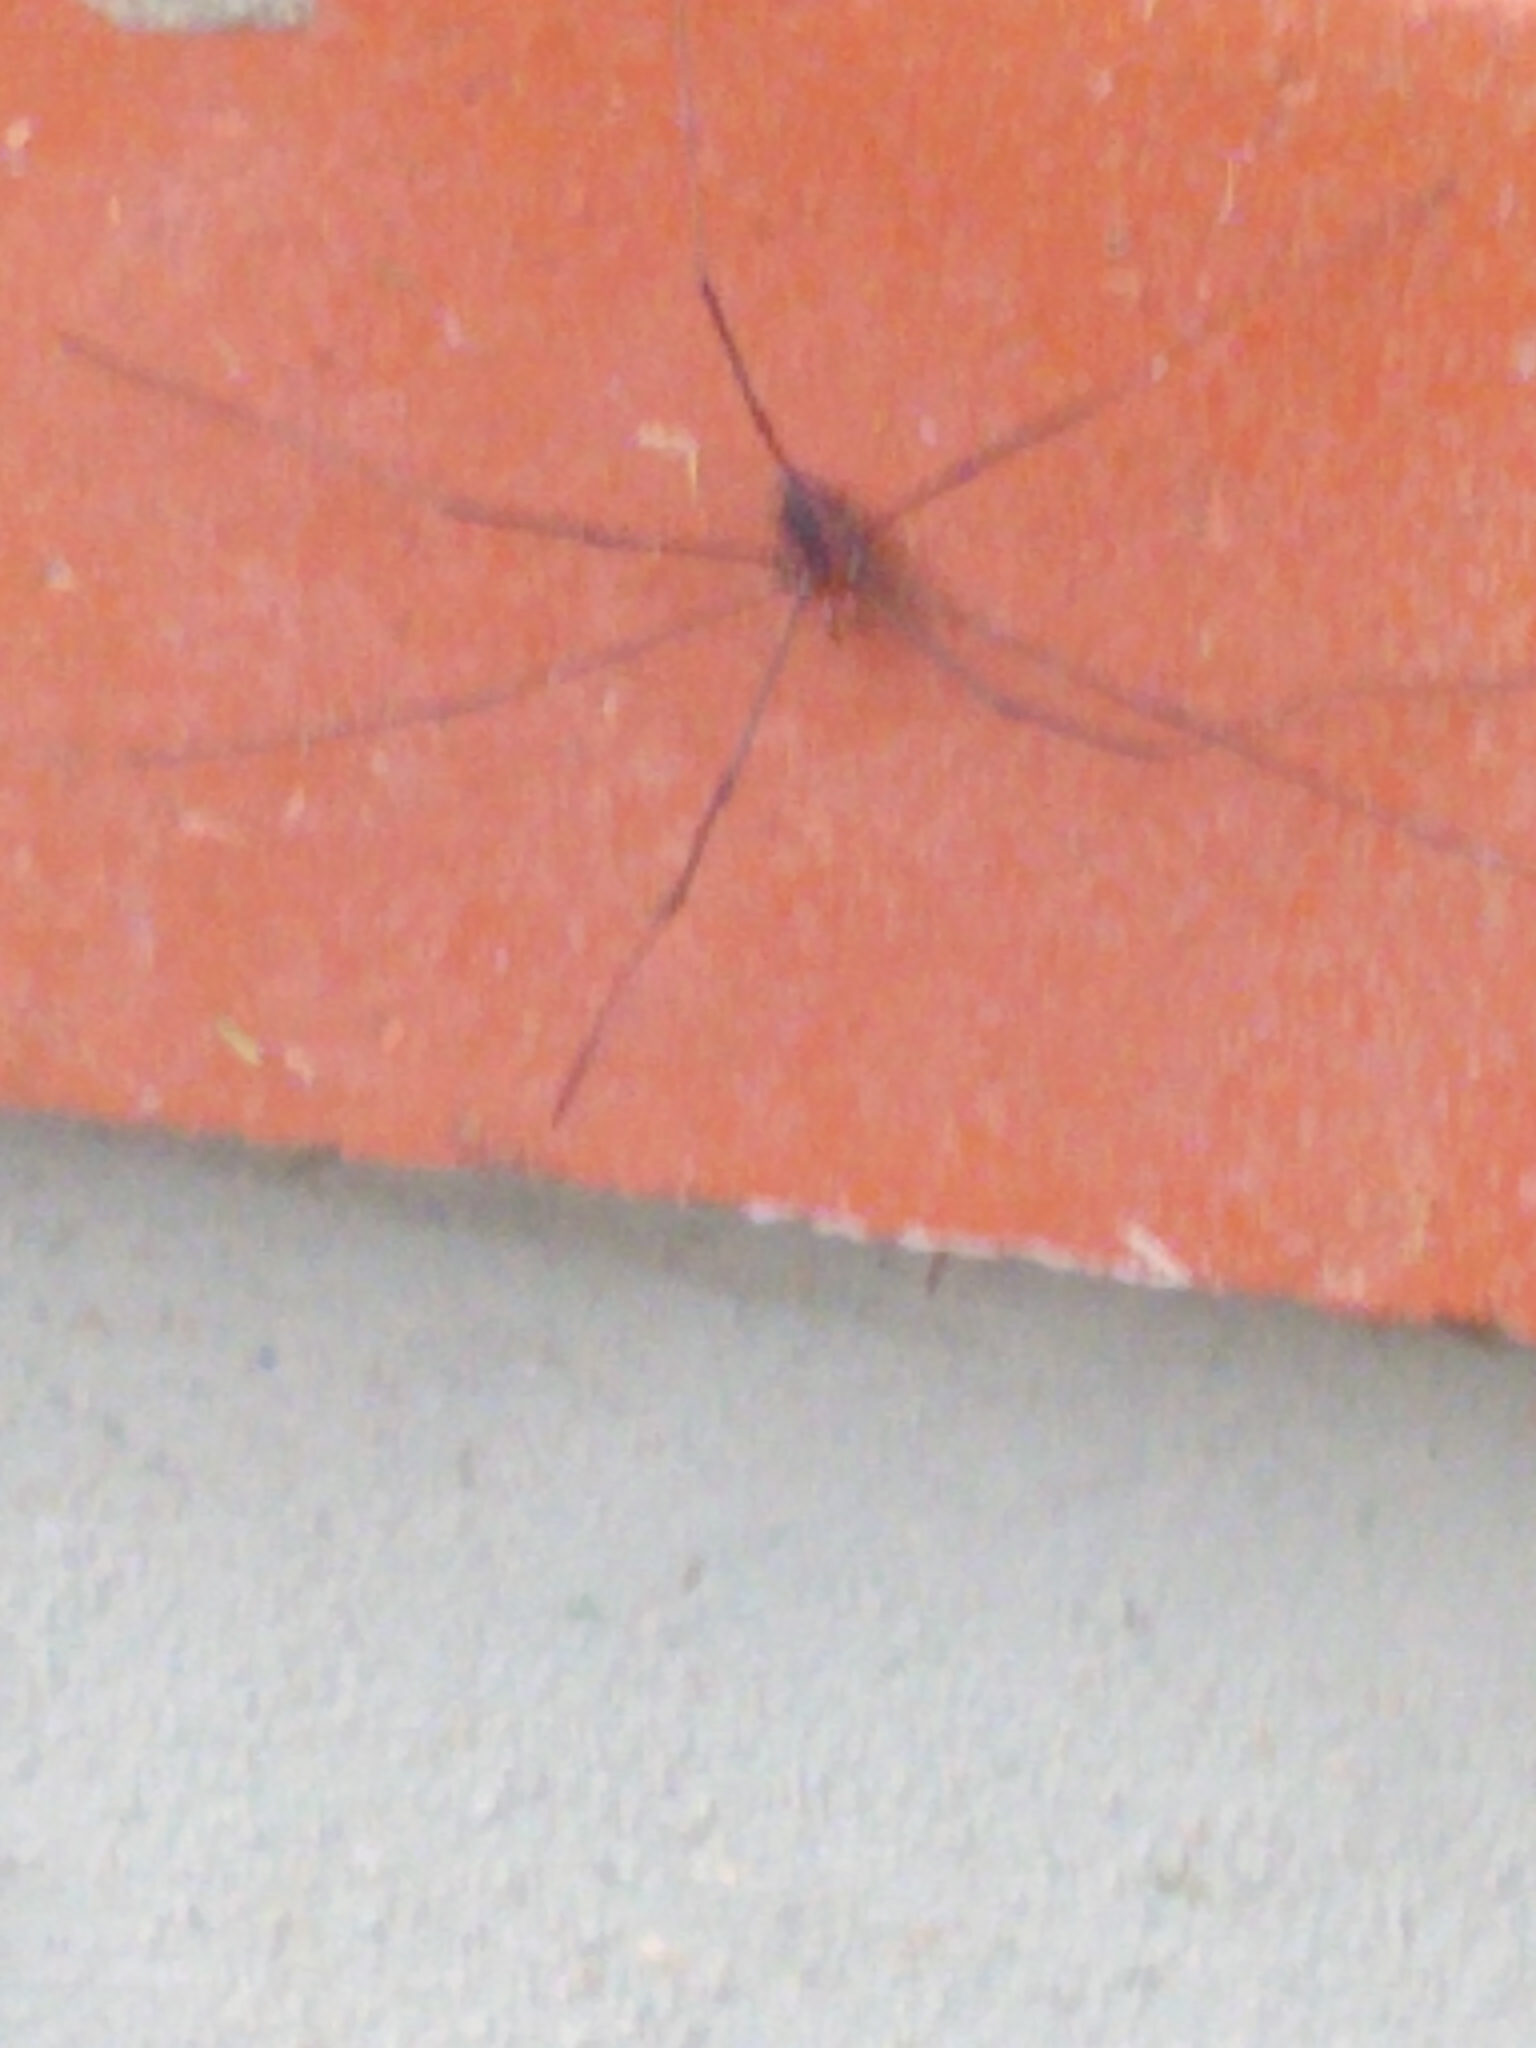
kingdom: Animalia
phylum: Arthropoda
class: Arachnida
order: Opiliones
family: Sclerosomatidae
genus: Leiobunum
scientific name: Leiobunum vittatum
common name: Eastern harvestman
